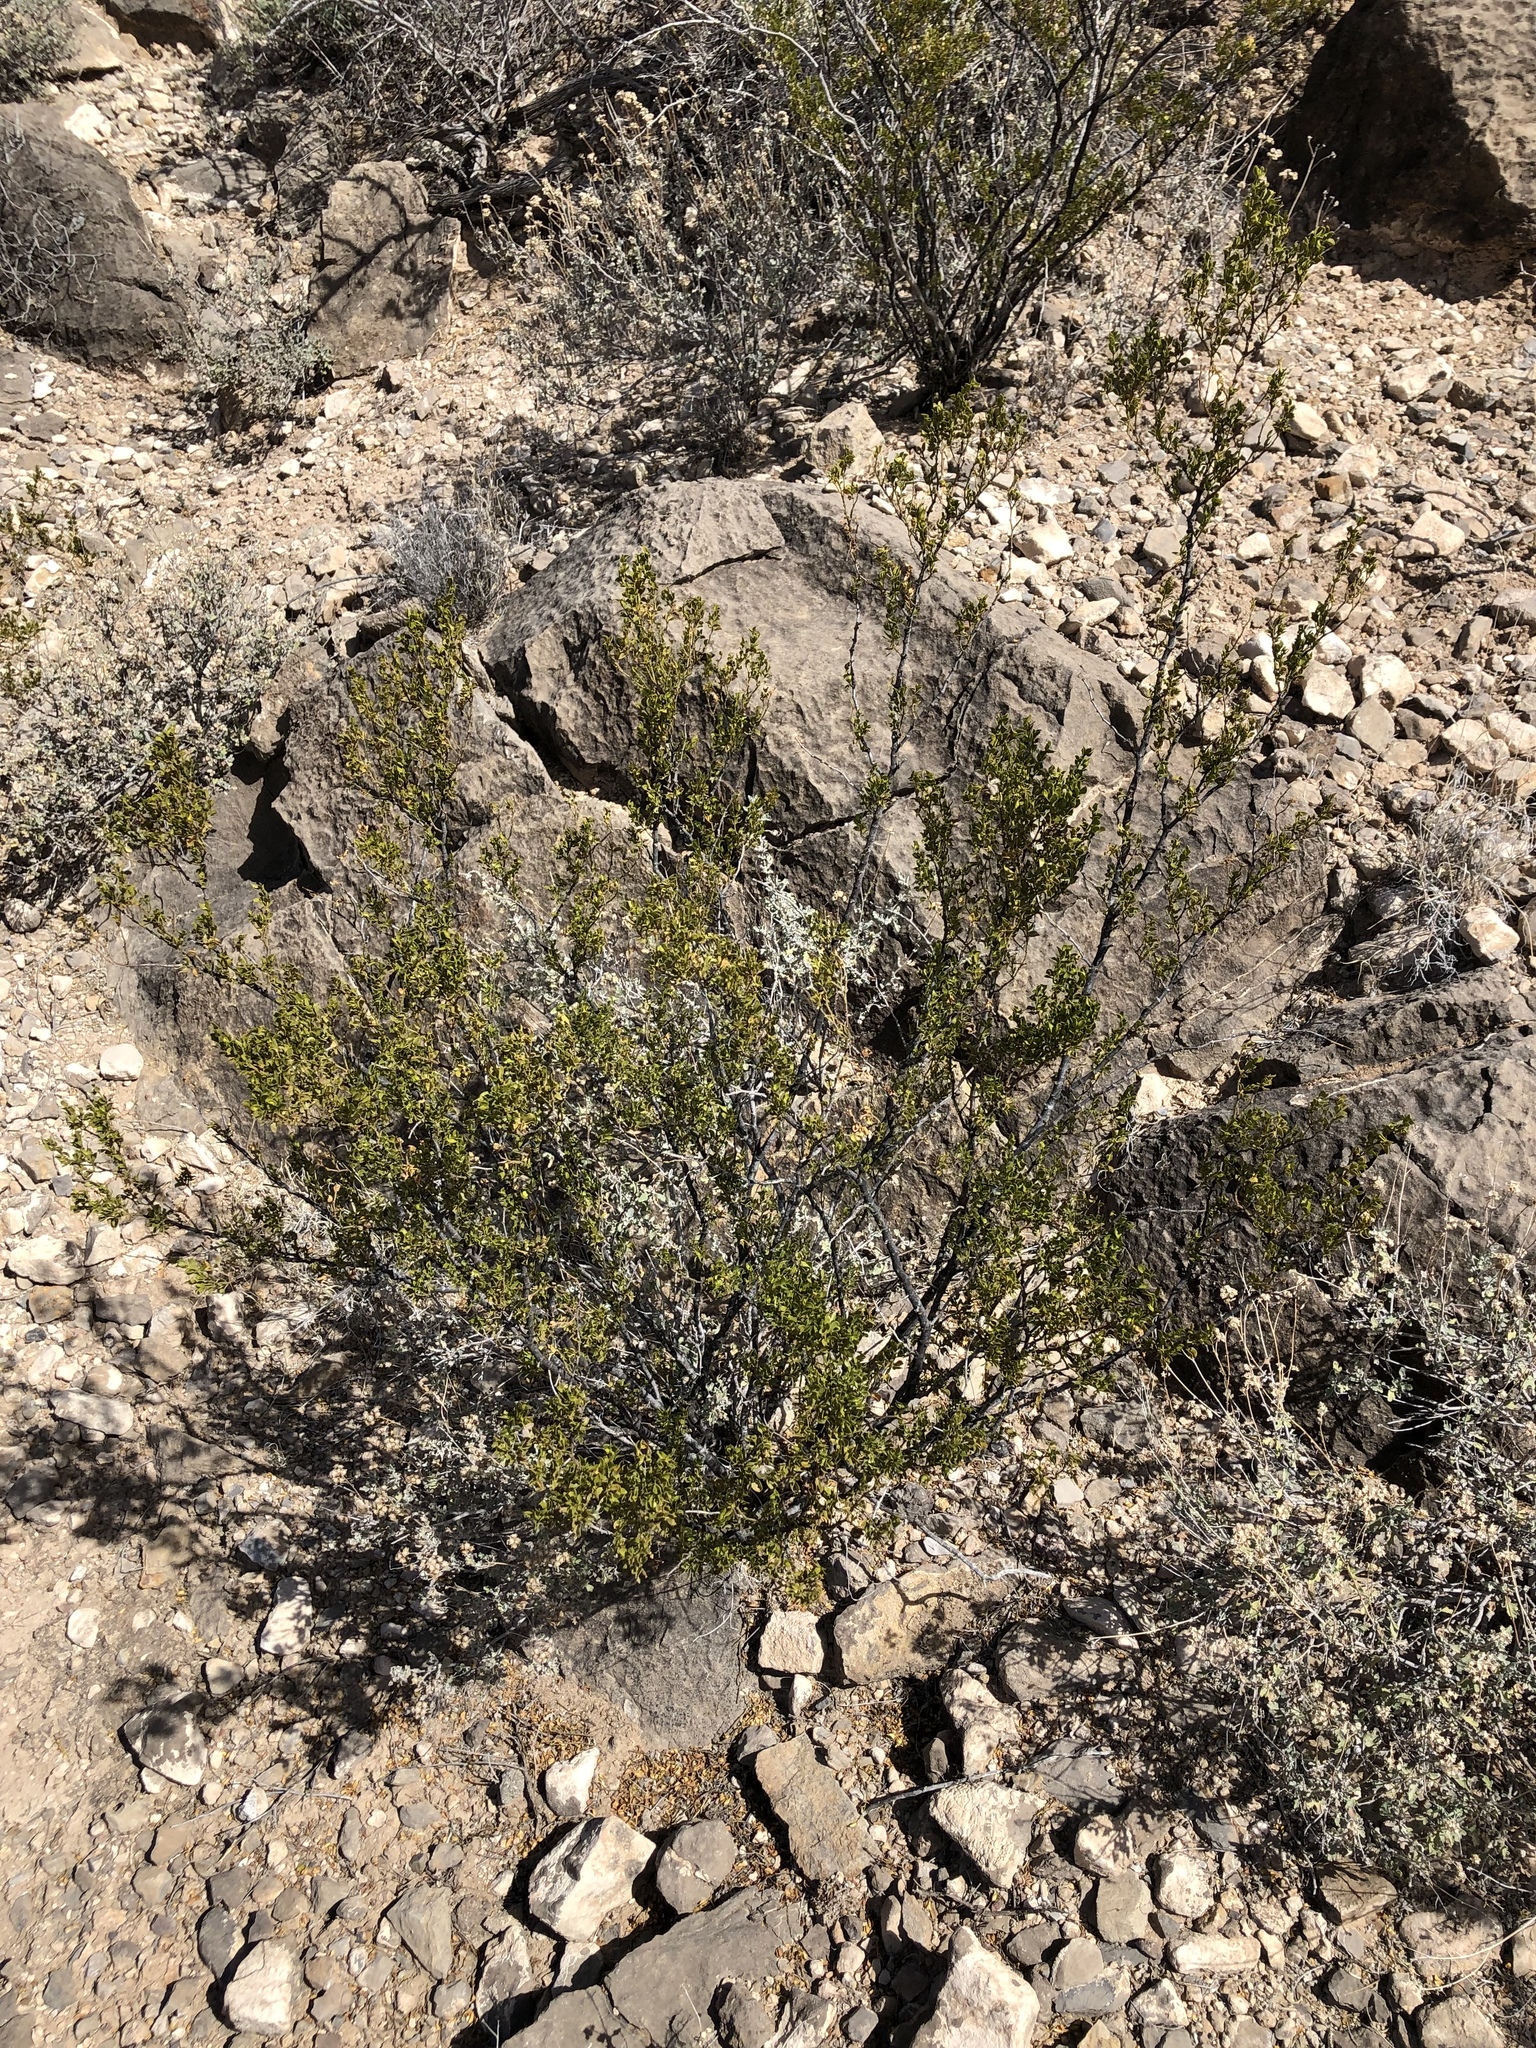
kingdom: Plantae
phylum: Tracheophyta
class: Magnoliopsida
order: Zygophyllales
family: Zygophyllaceae
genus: Larrea
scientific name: Larrea tridentata
